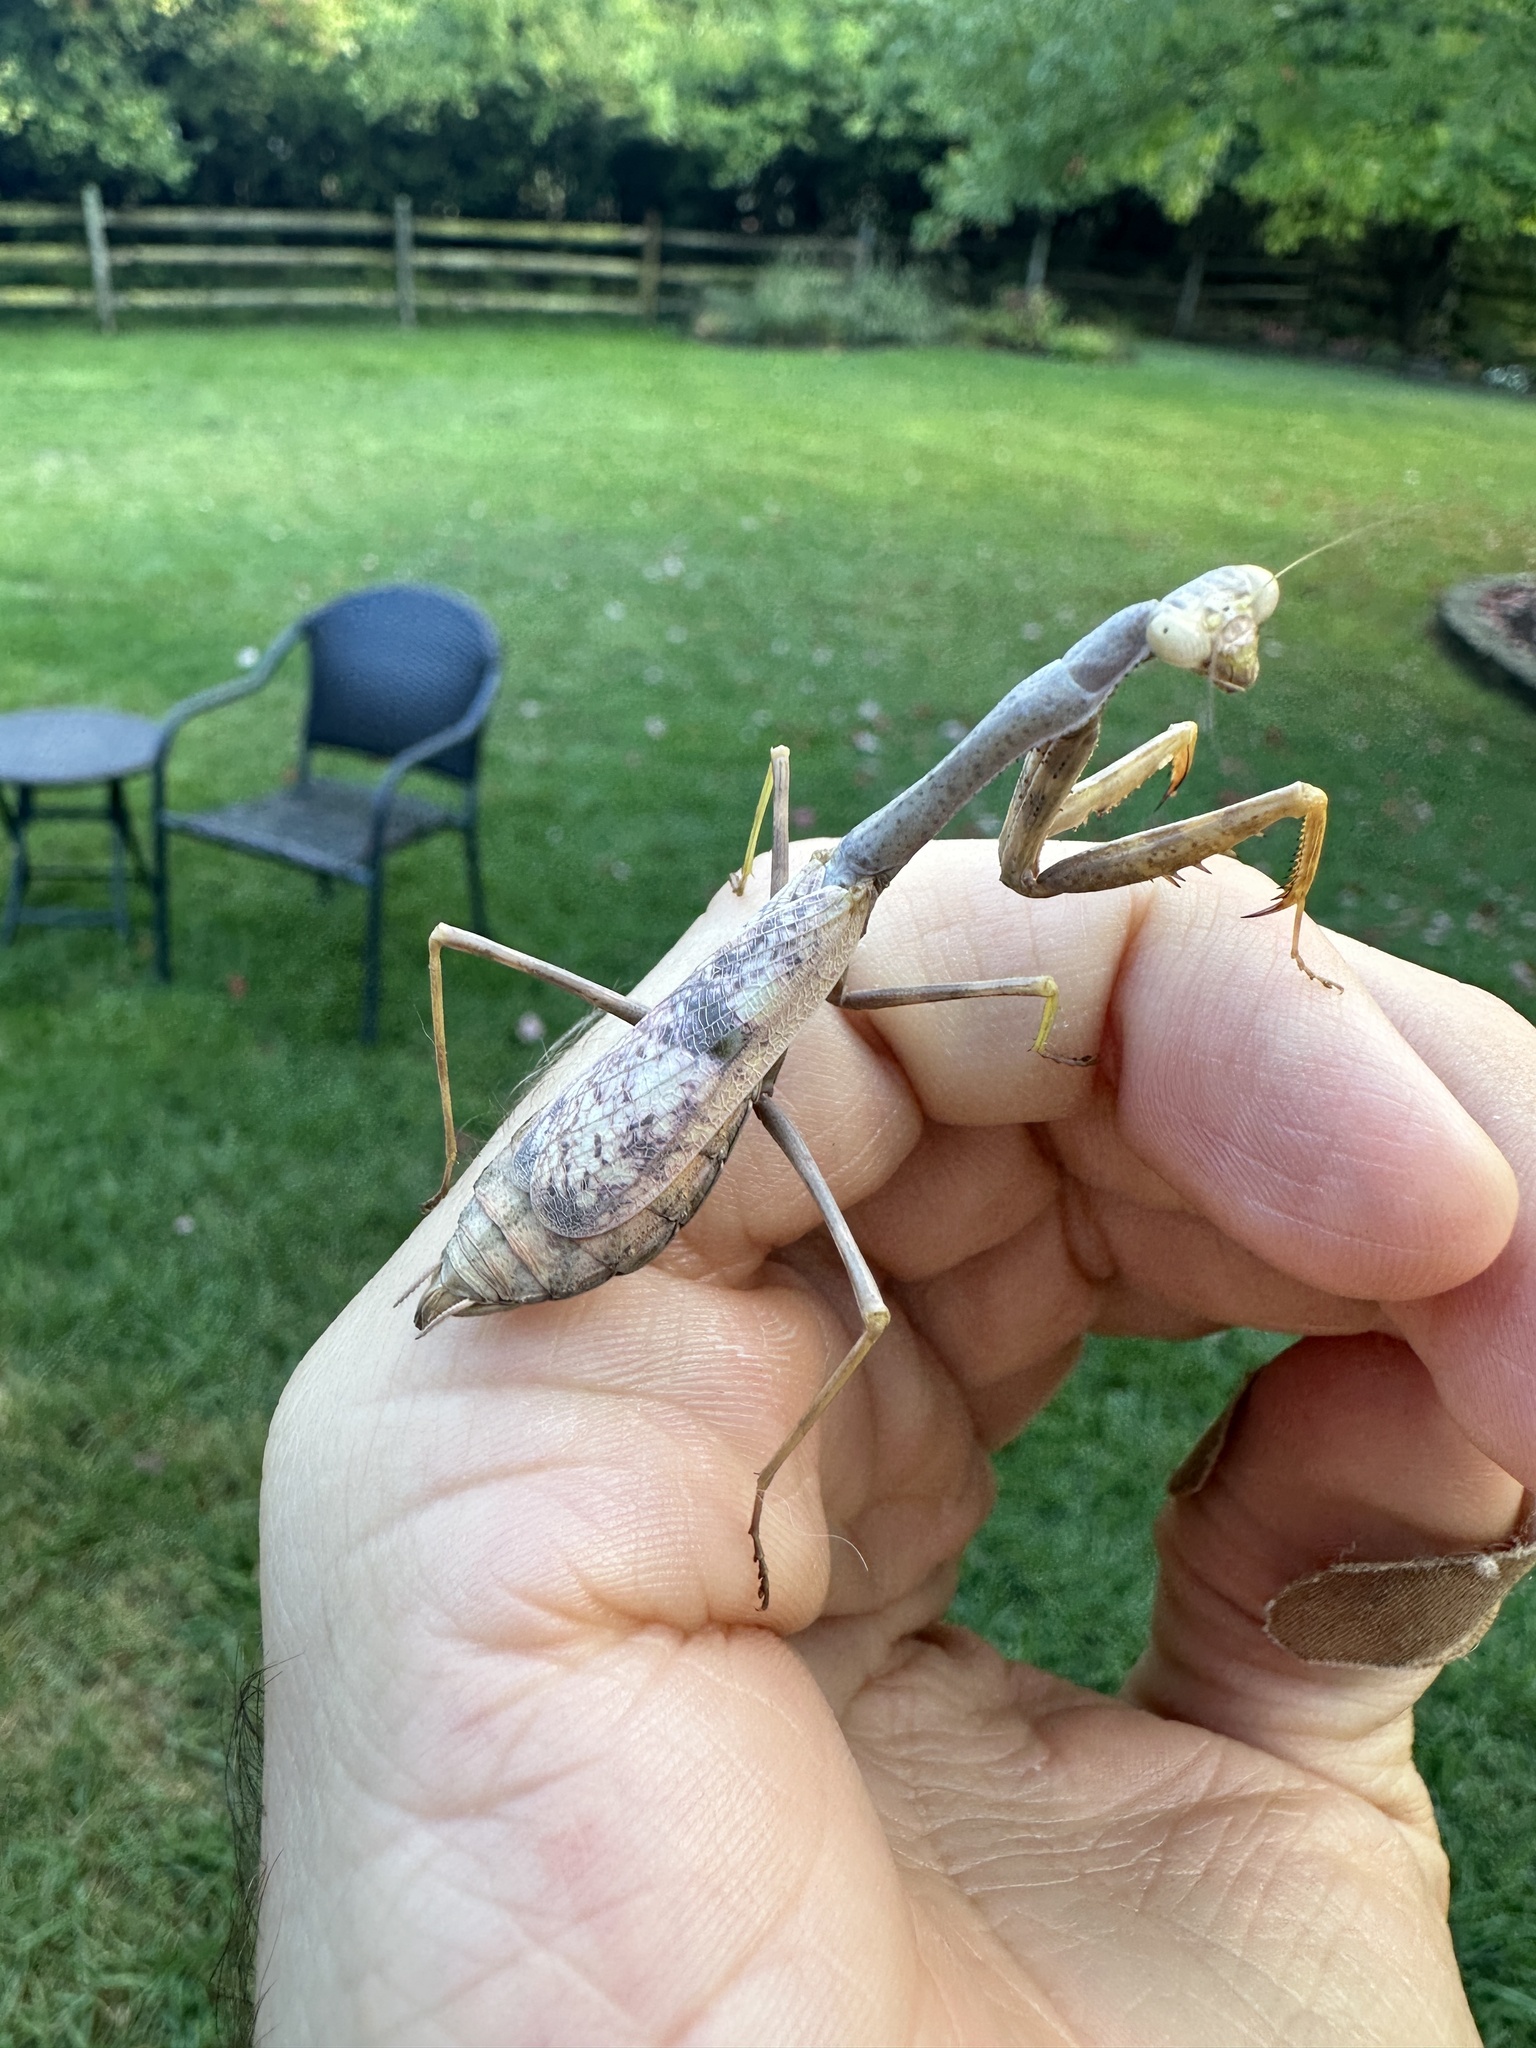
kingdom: Animalia
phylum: Arthropoda
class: Insecta
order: Mantodea
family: Mantidae
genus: Stagmomantis
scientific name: Stagmomantis carolina
